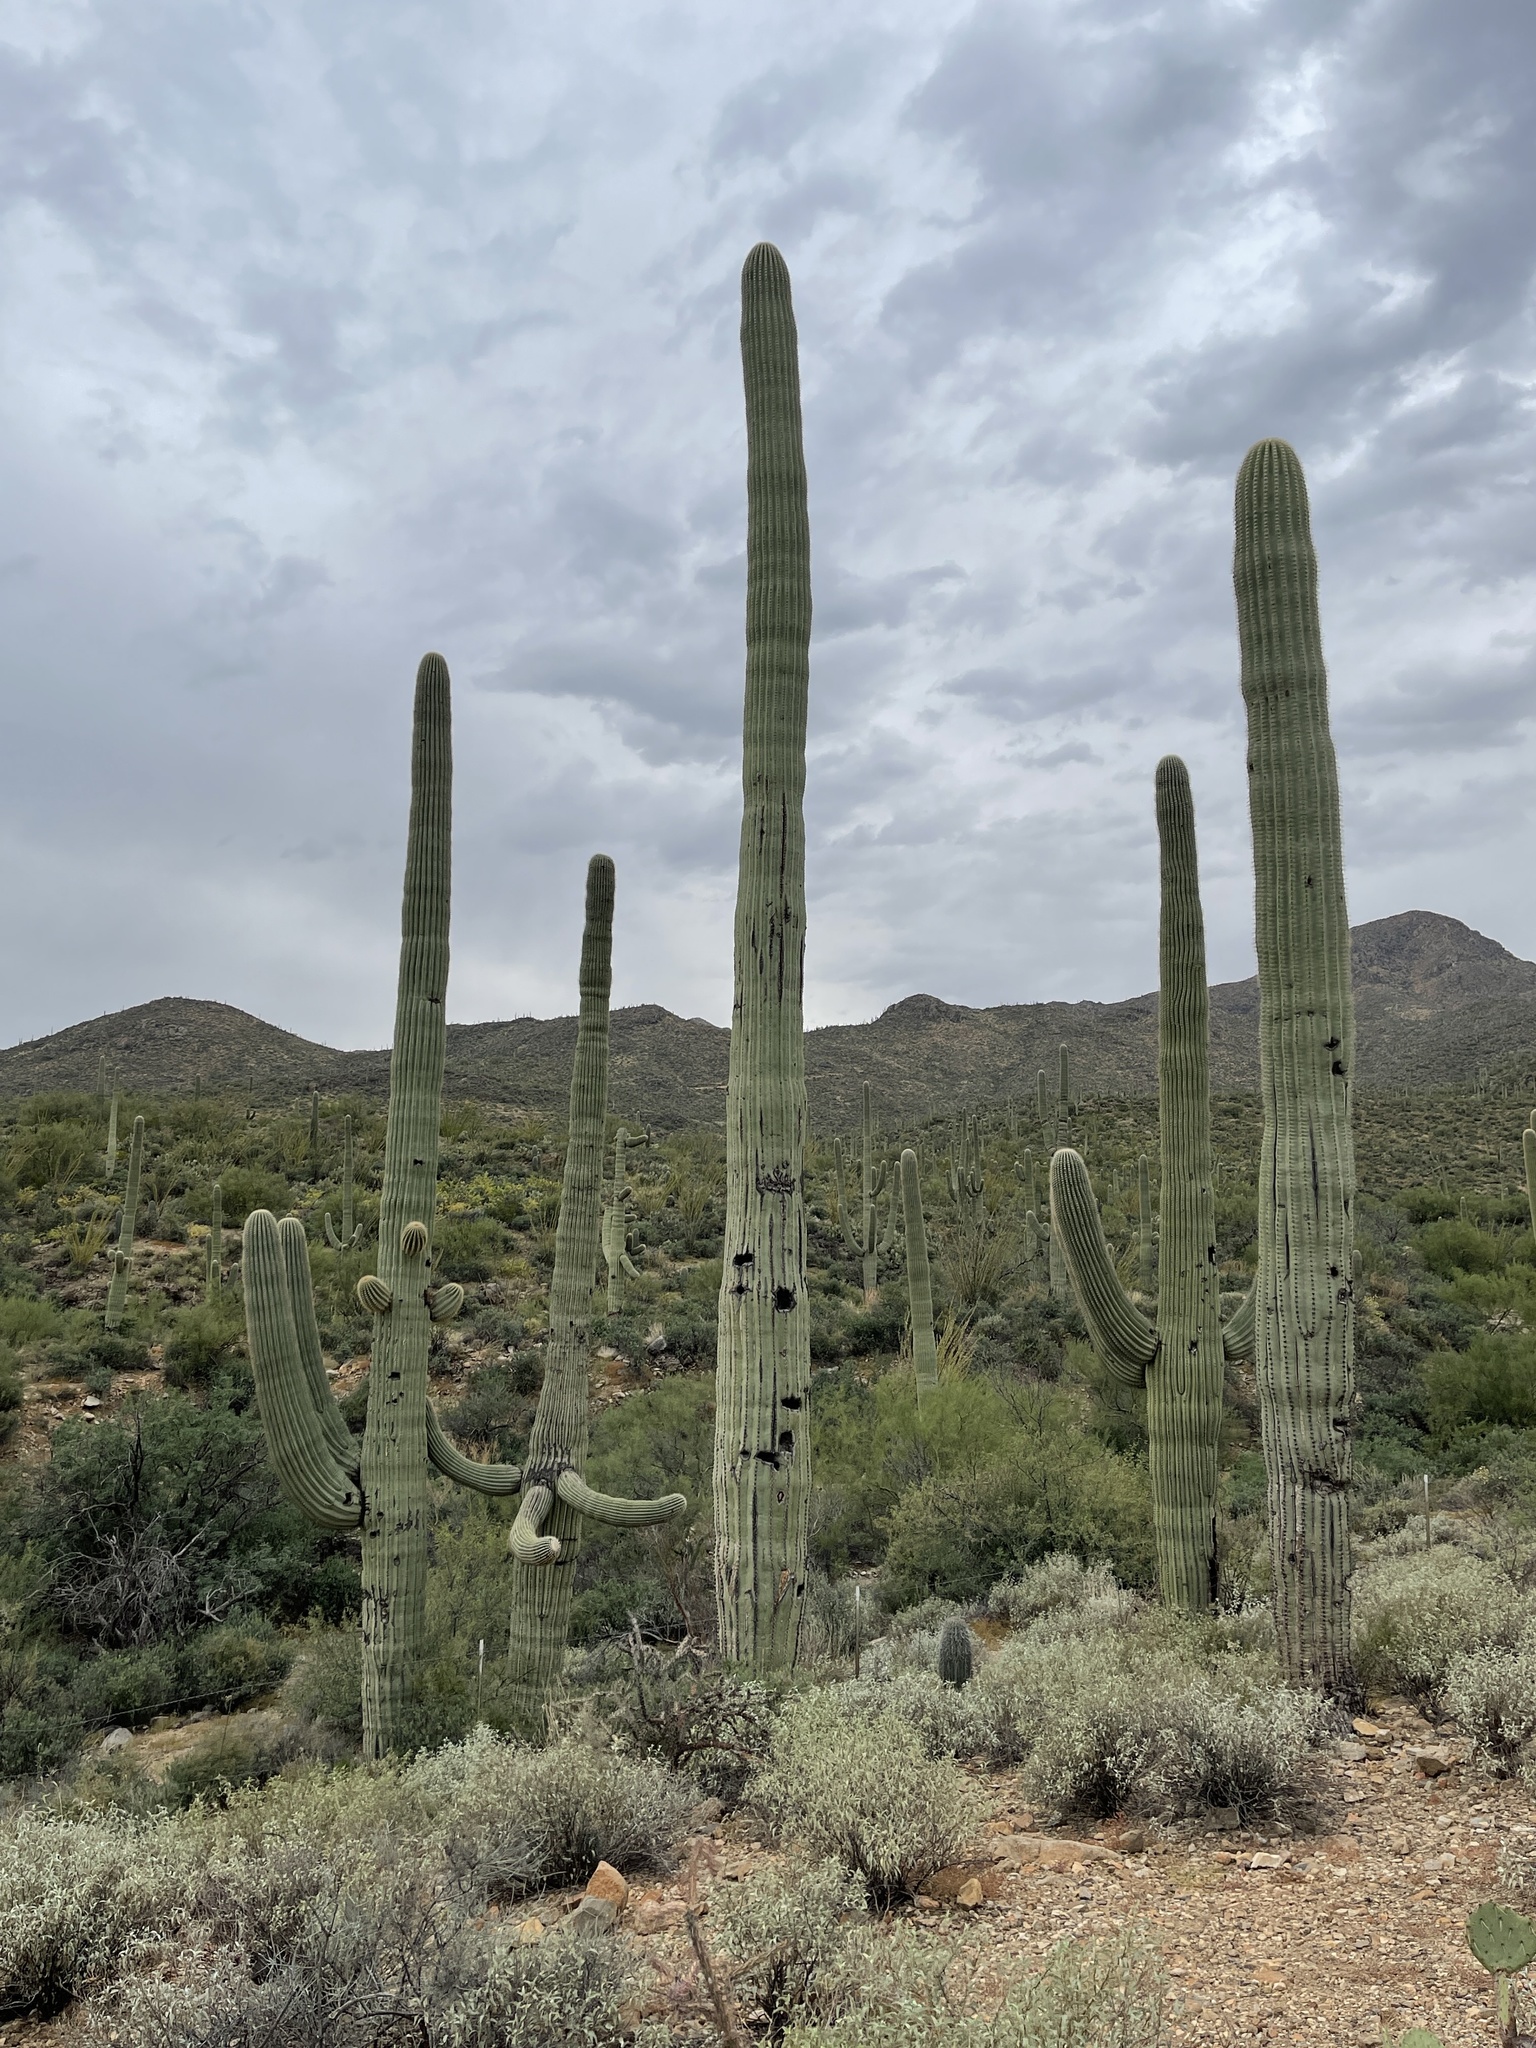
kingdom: Plantae
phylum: Tracheophyta
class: Magnoliopsida
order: Caryophyllales
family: Cactaceae
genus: Carnegiea
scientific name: Carnegiea gigantea
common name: Saguaro
